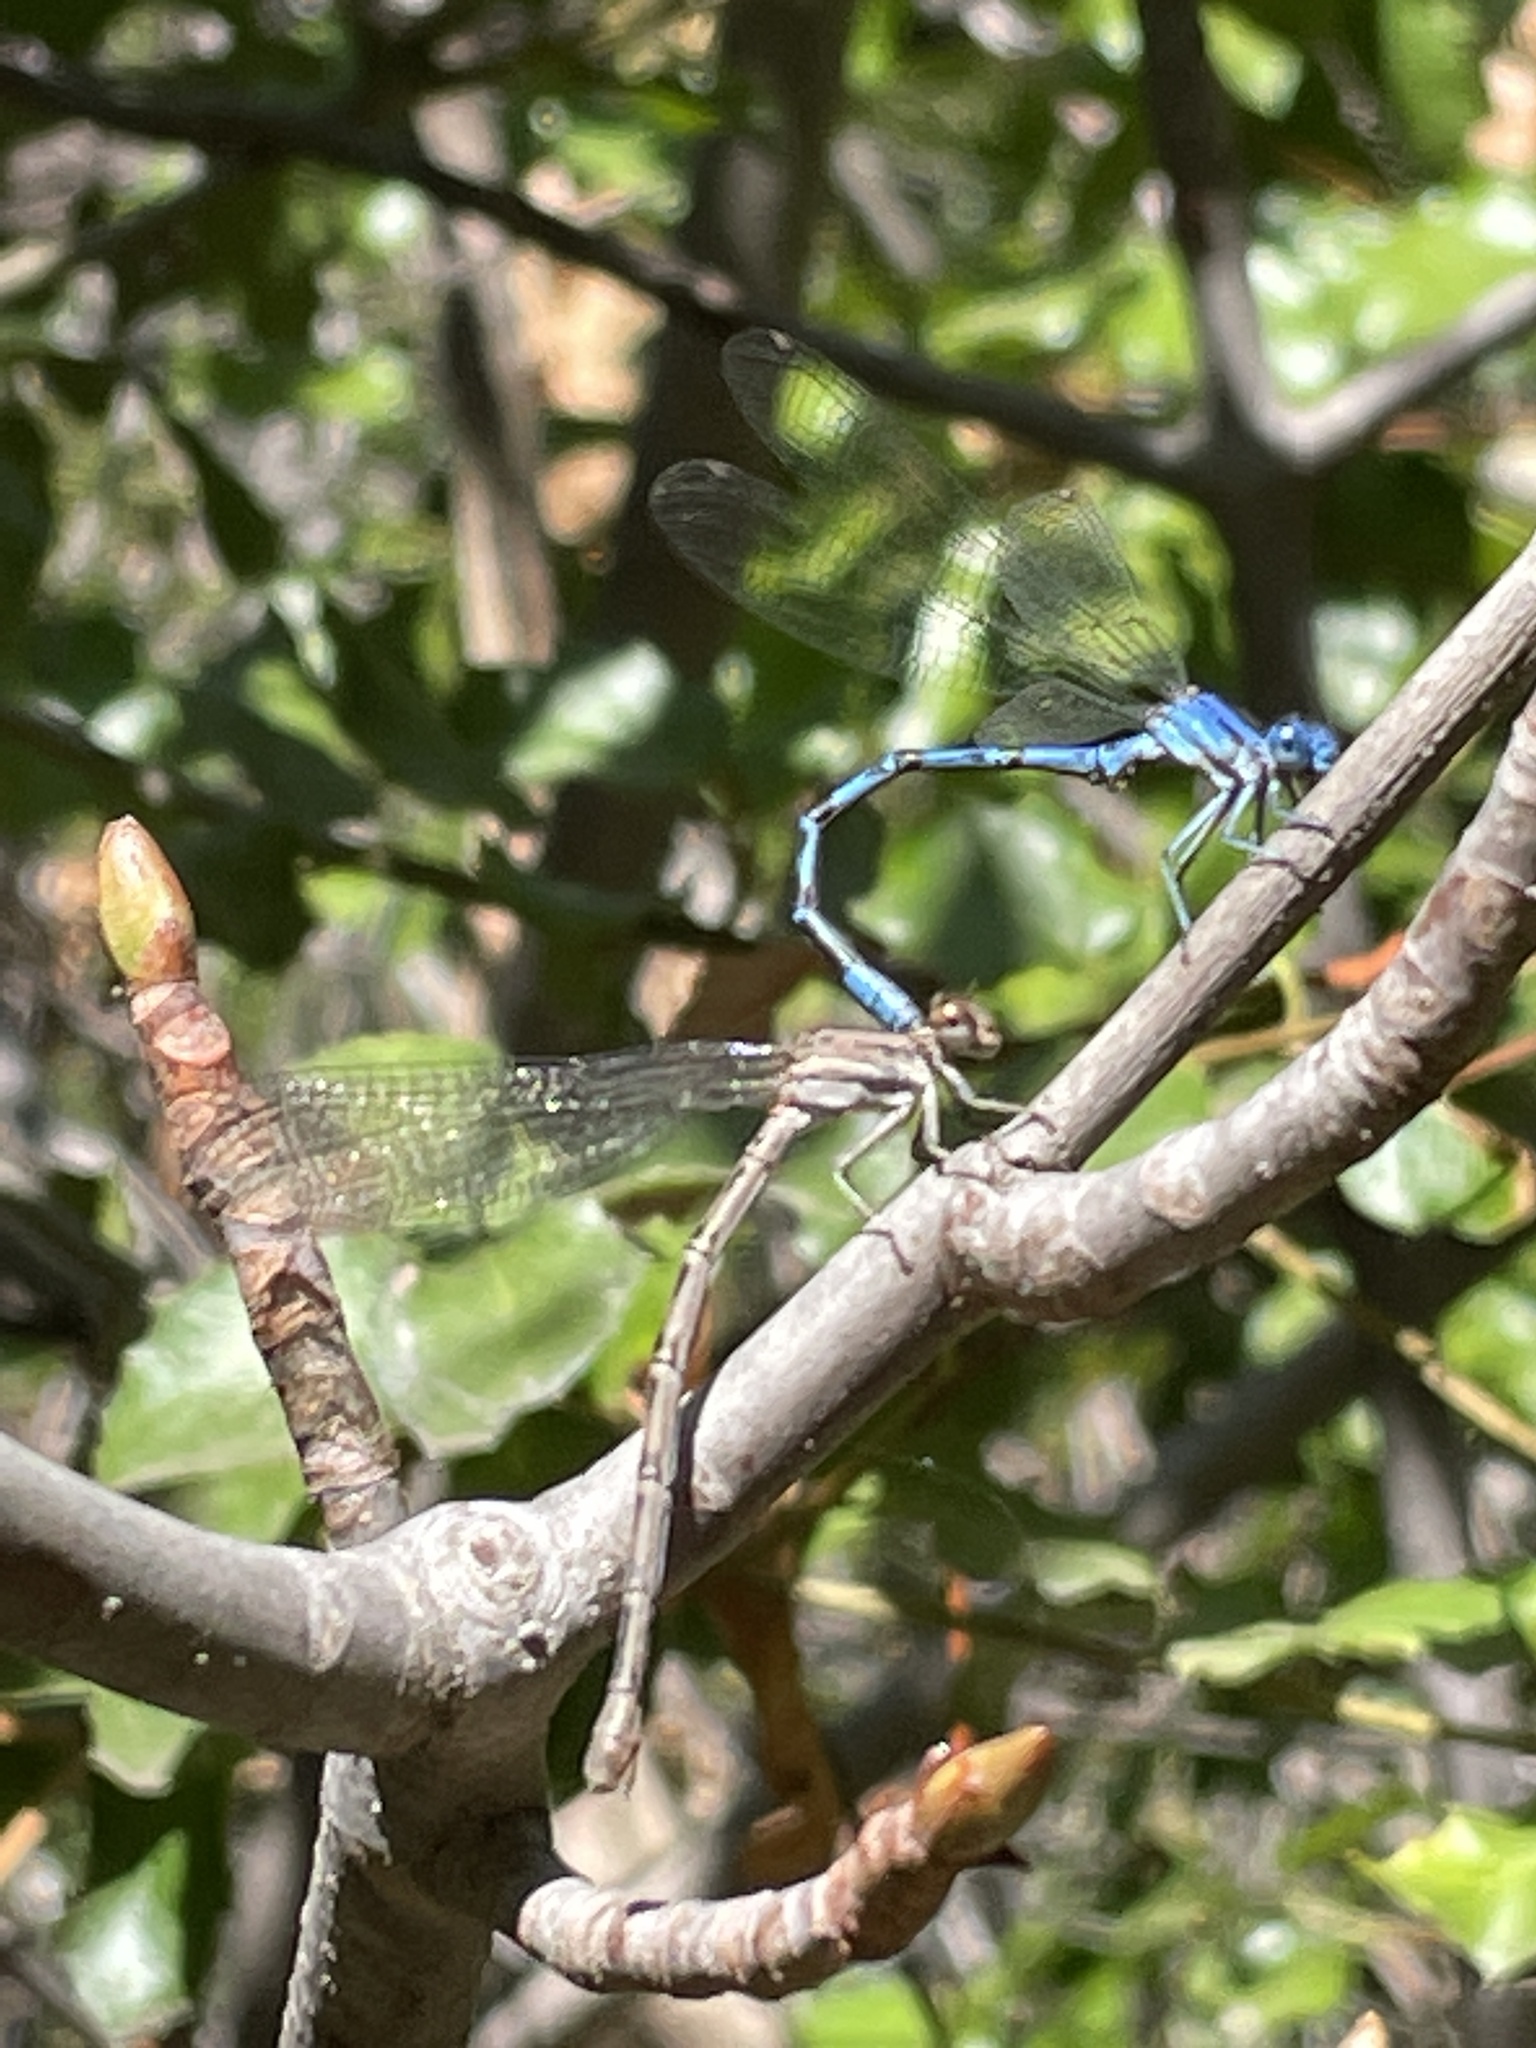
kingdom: Animalia
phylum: Arthropoda
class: Insecta
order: Odonata
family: Coenagrionidae
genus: Argia
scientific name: Argia vivida
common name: Vivid dancer
